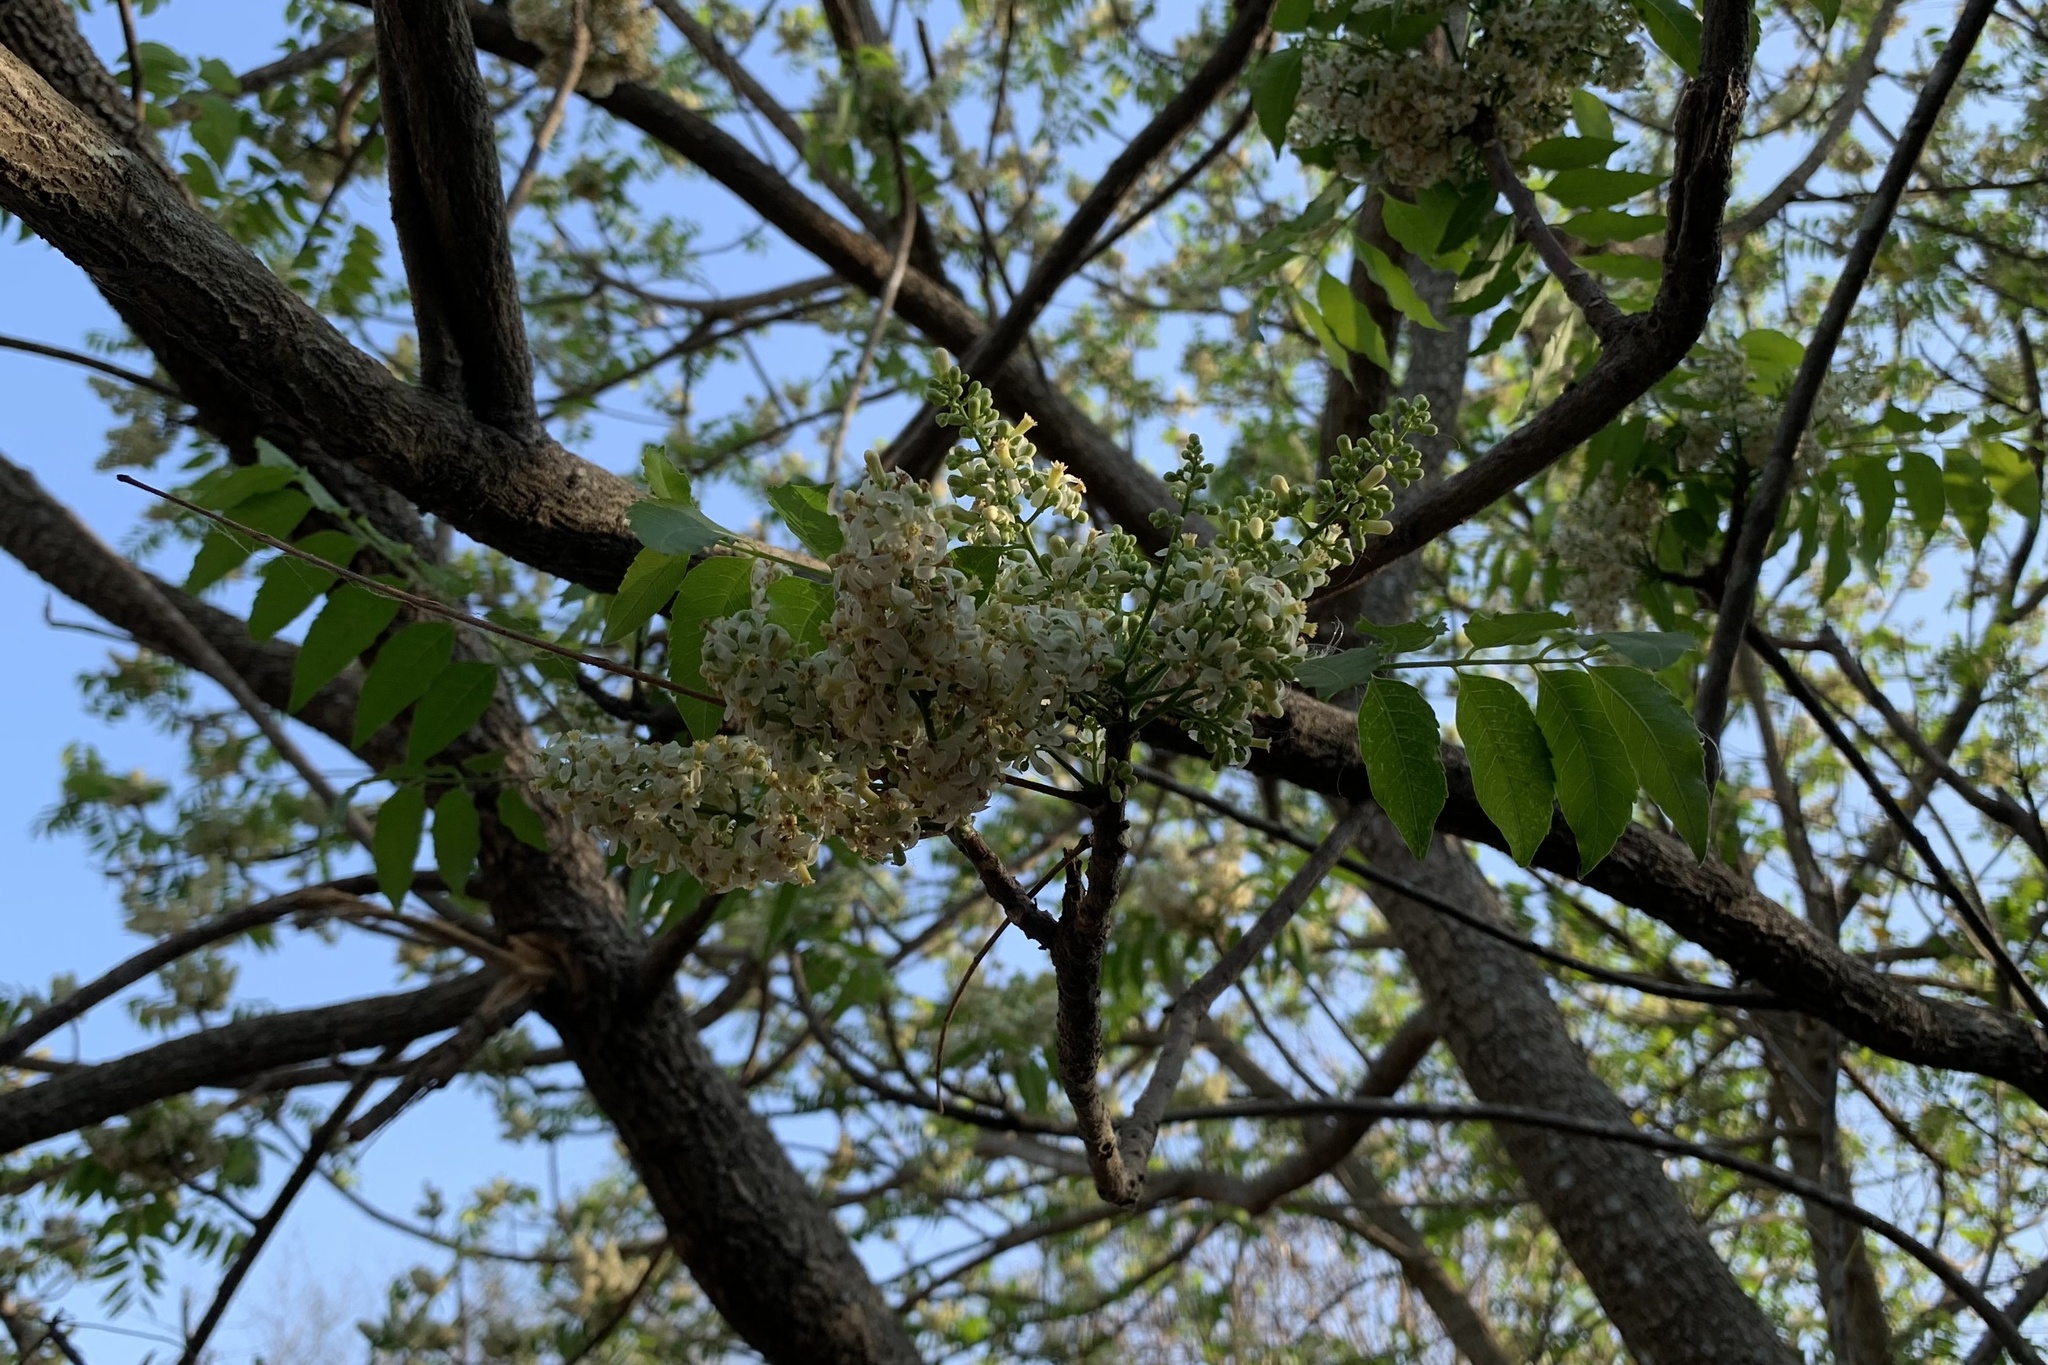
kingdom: Plantae
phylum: Tracheophyta
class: Magnoliopsida
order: Sapindales
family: Meliaceae
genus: Azadirachta
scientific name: Azadirachta indica
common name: Neem
